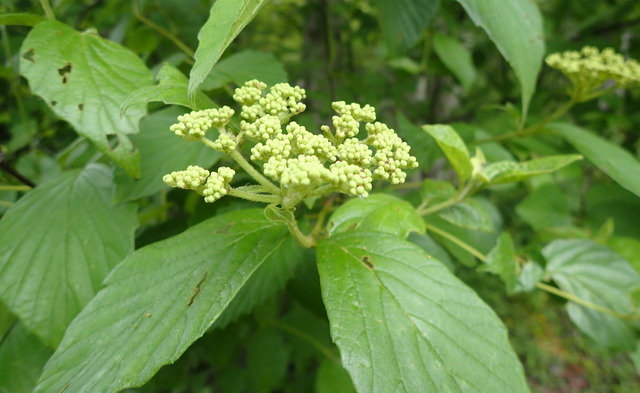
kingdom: Plantae
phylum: Tracheophyta
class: Magnoliopsida
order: Dipsacales
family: Viburnaceae
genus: Viburnum
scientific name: Viburnum scabrellum
